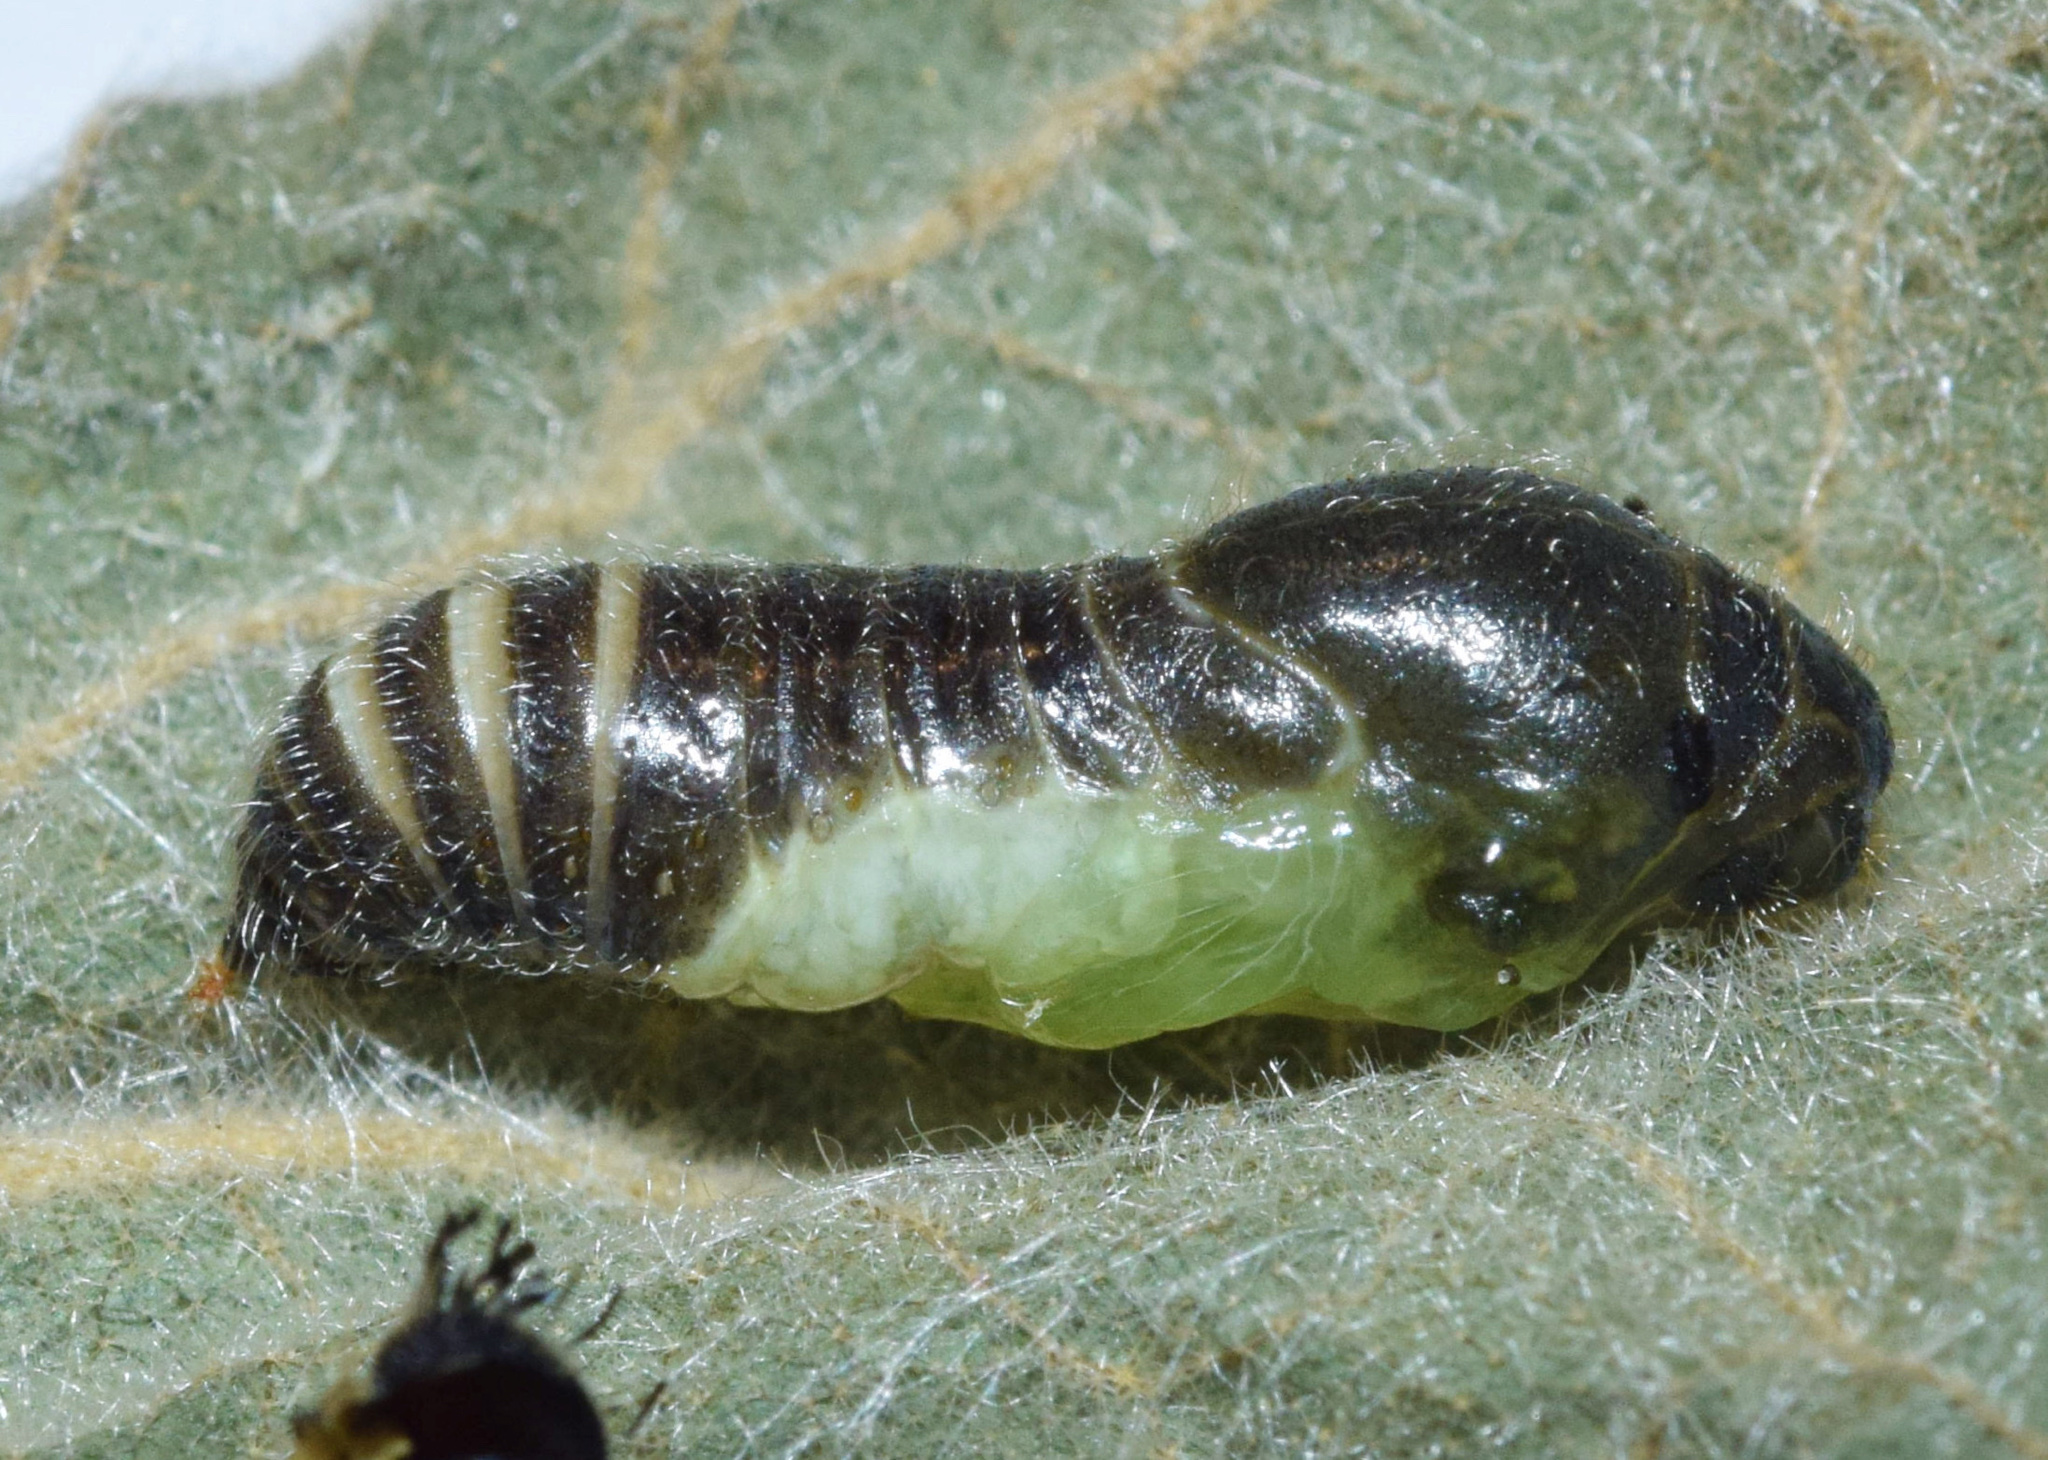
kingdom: Animalia
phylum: Arthropoda
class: Insecta
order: Lepidoptera
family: Hesperiidae
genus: Spialia
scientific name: Spialia spio
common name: Mountain sandman
